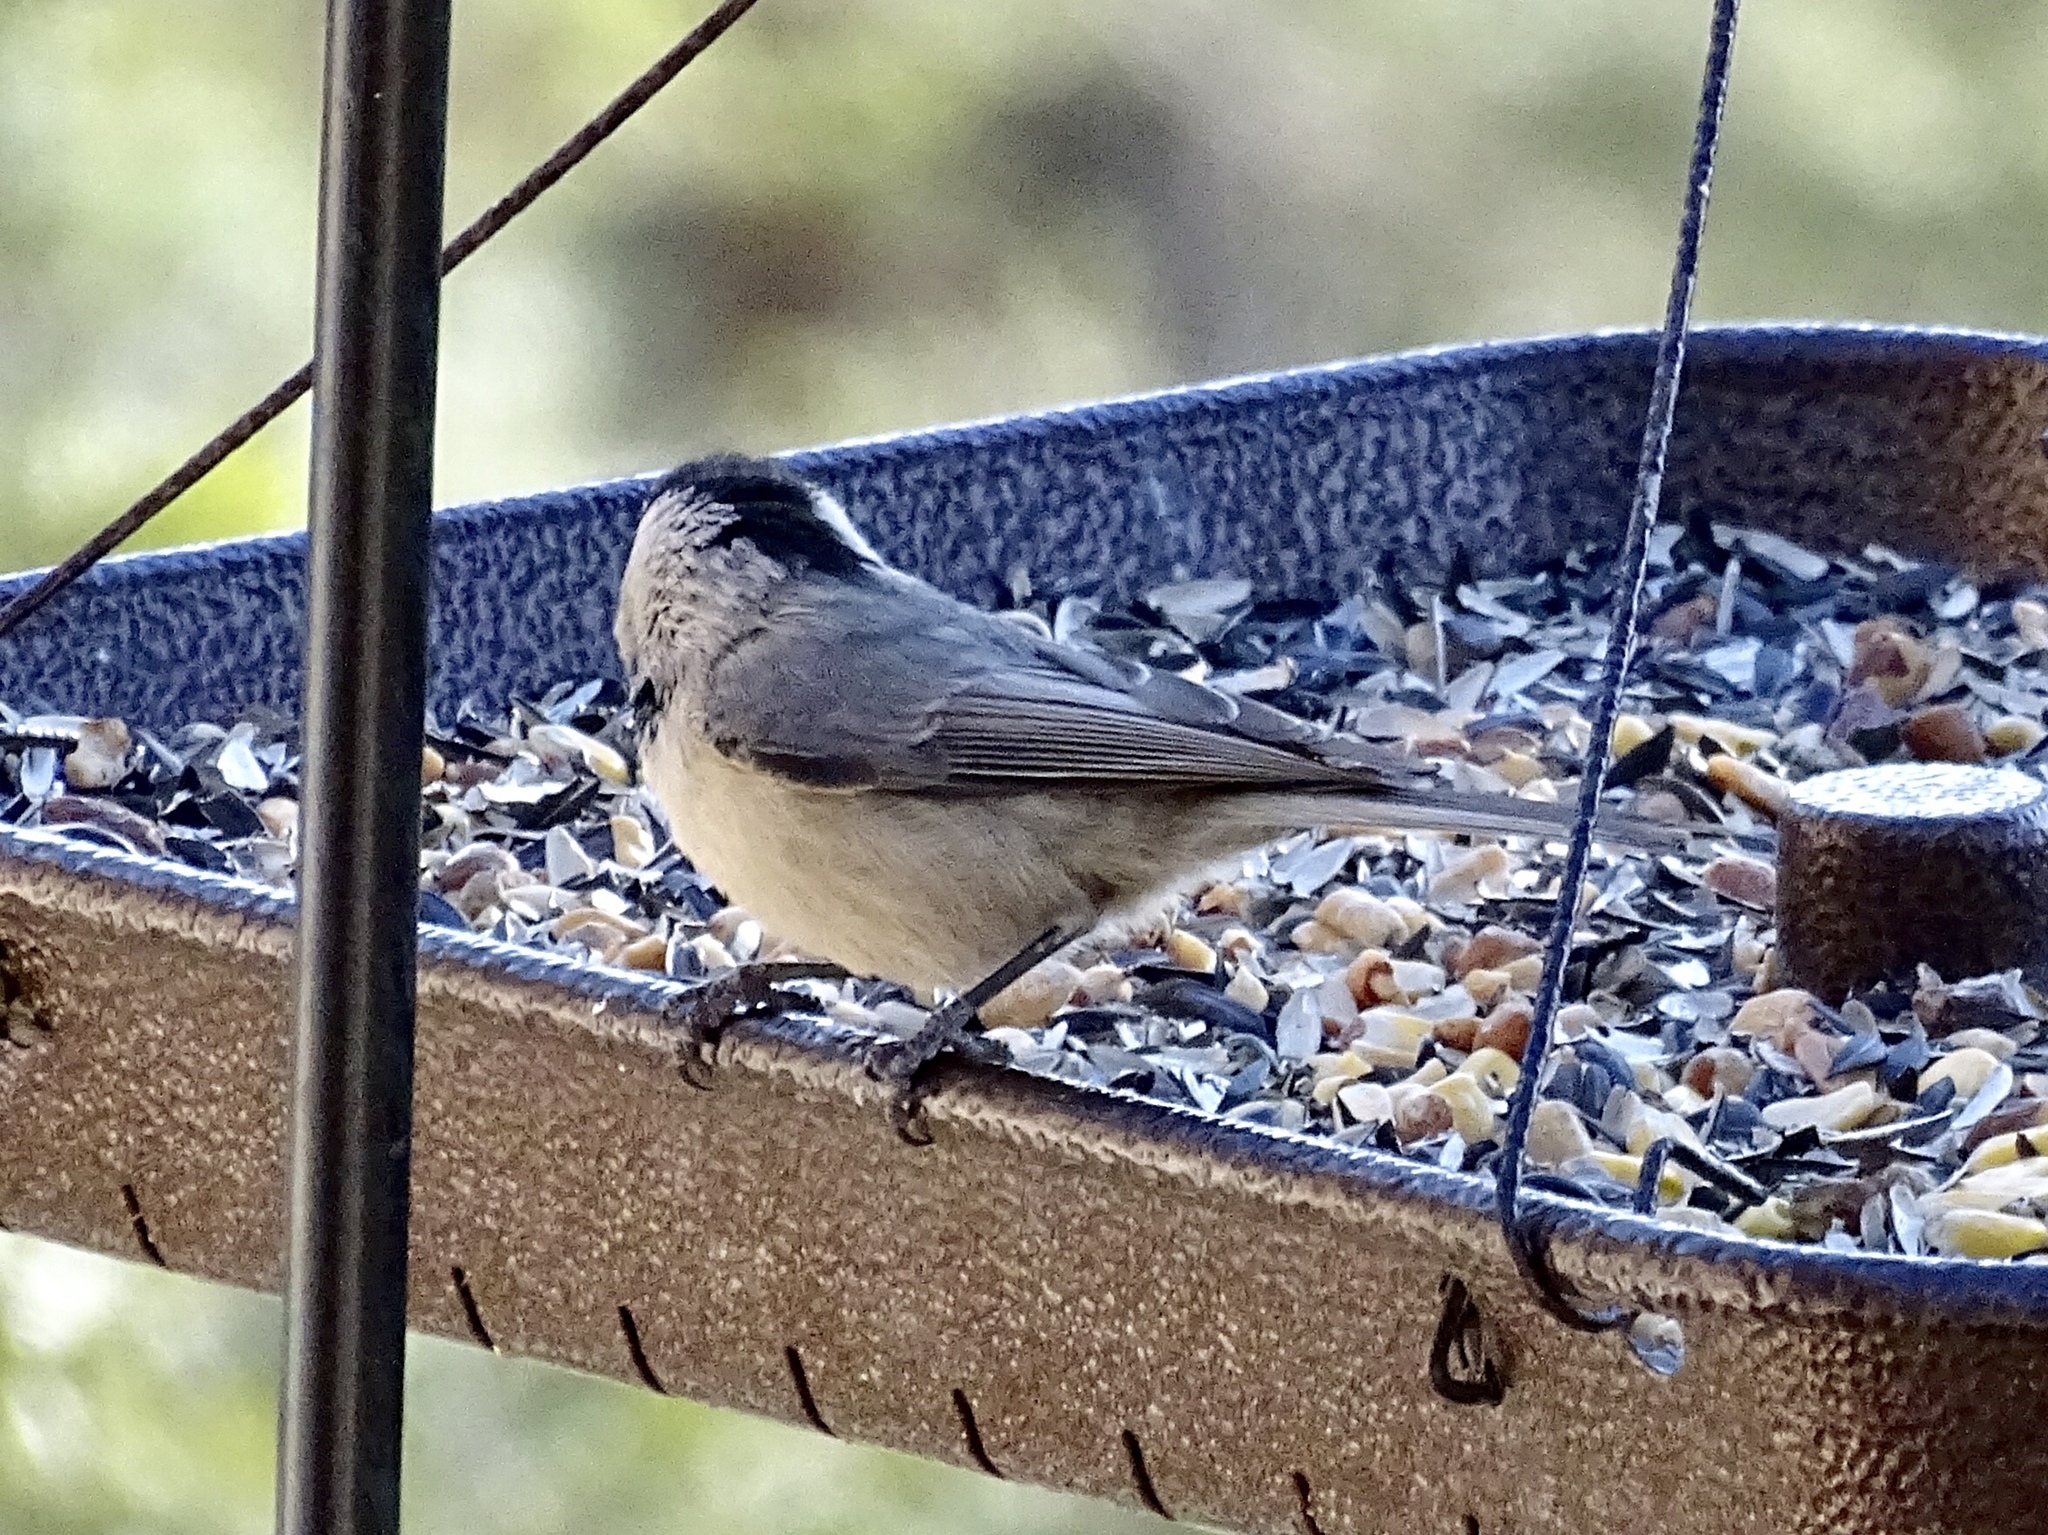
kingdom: Animalia
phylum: Chordata
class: Aves
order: Passeriformes
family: Paridae
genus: Poecile
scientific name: Poecile gambeli
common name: Mountain chickadee
